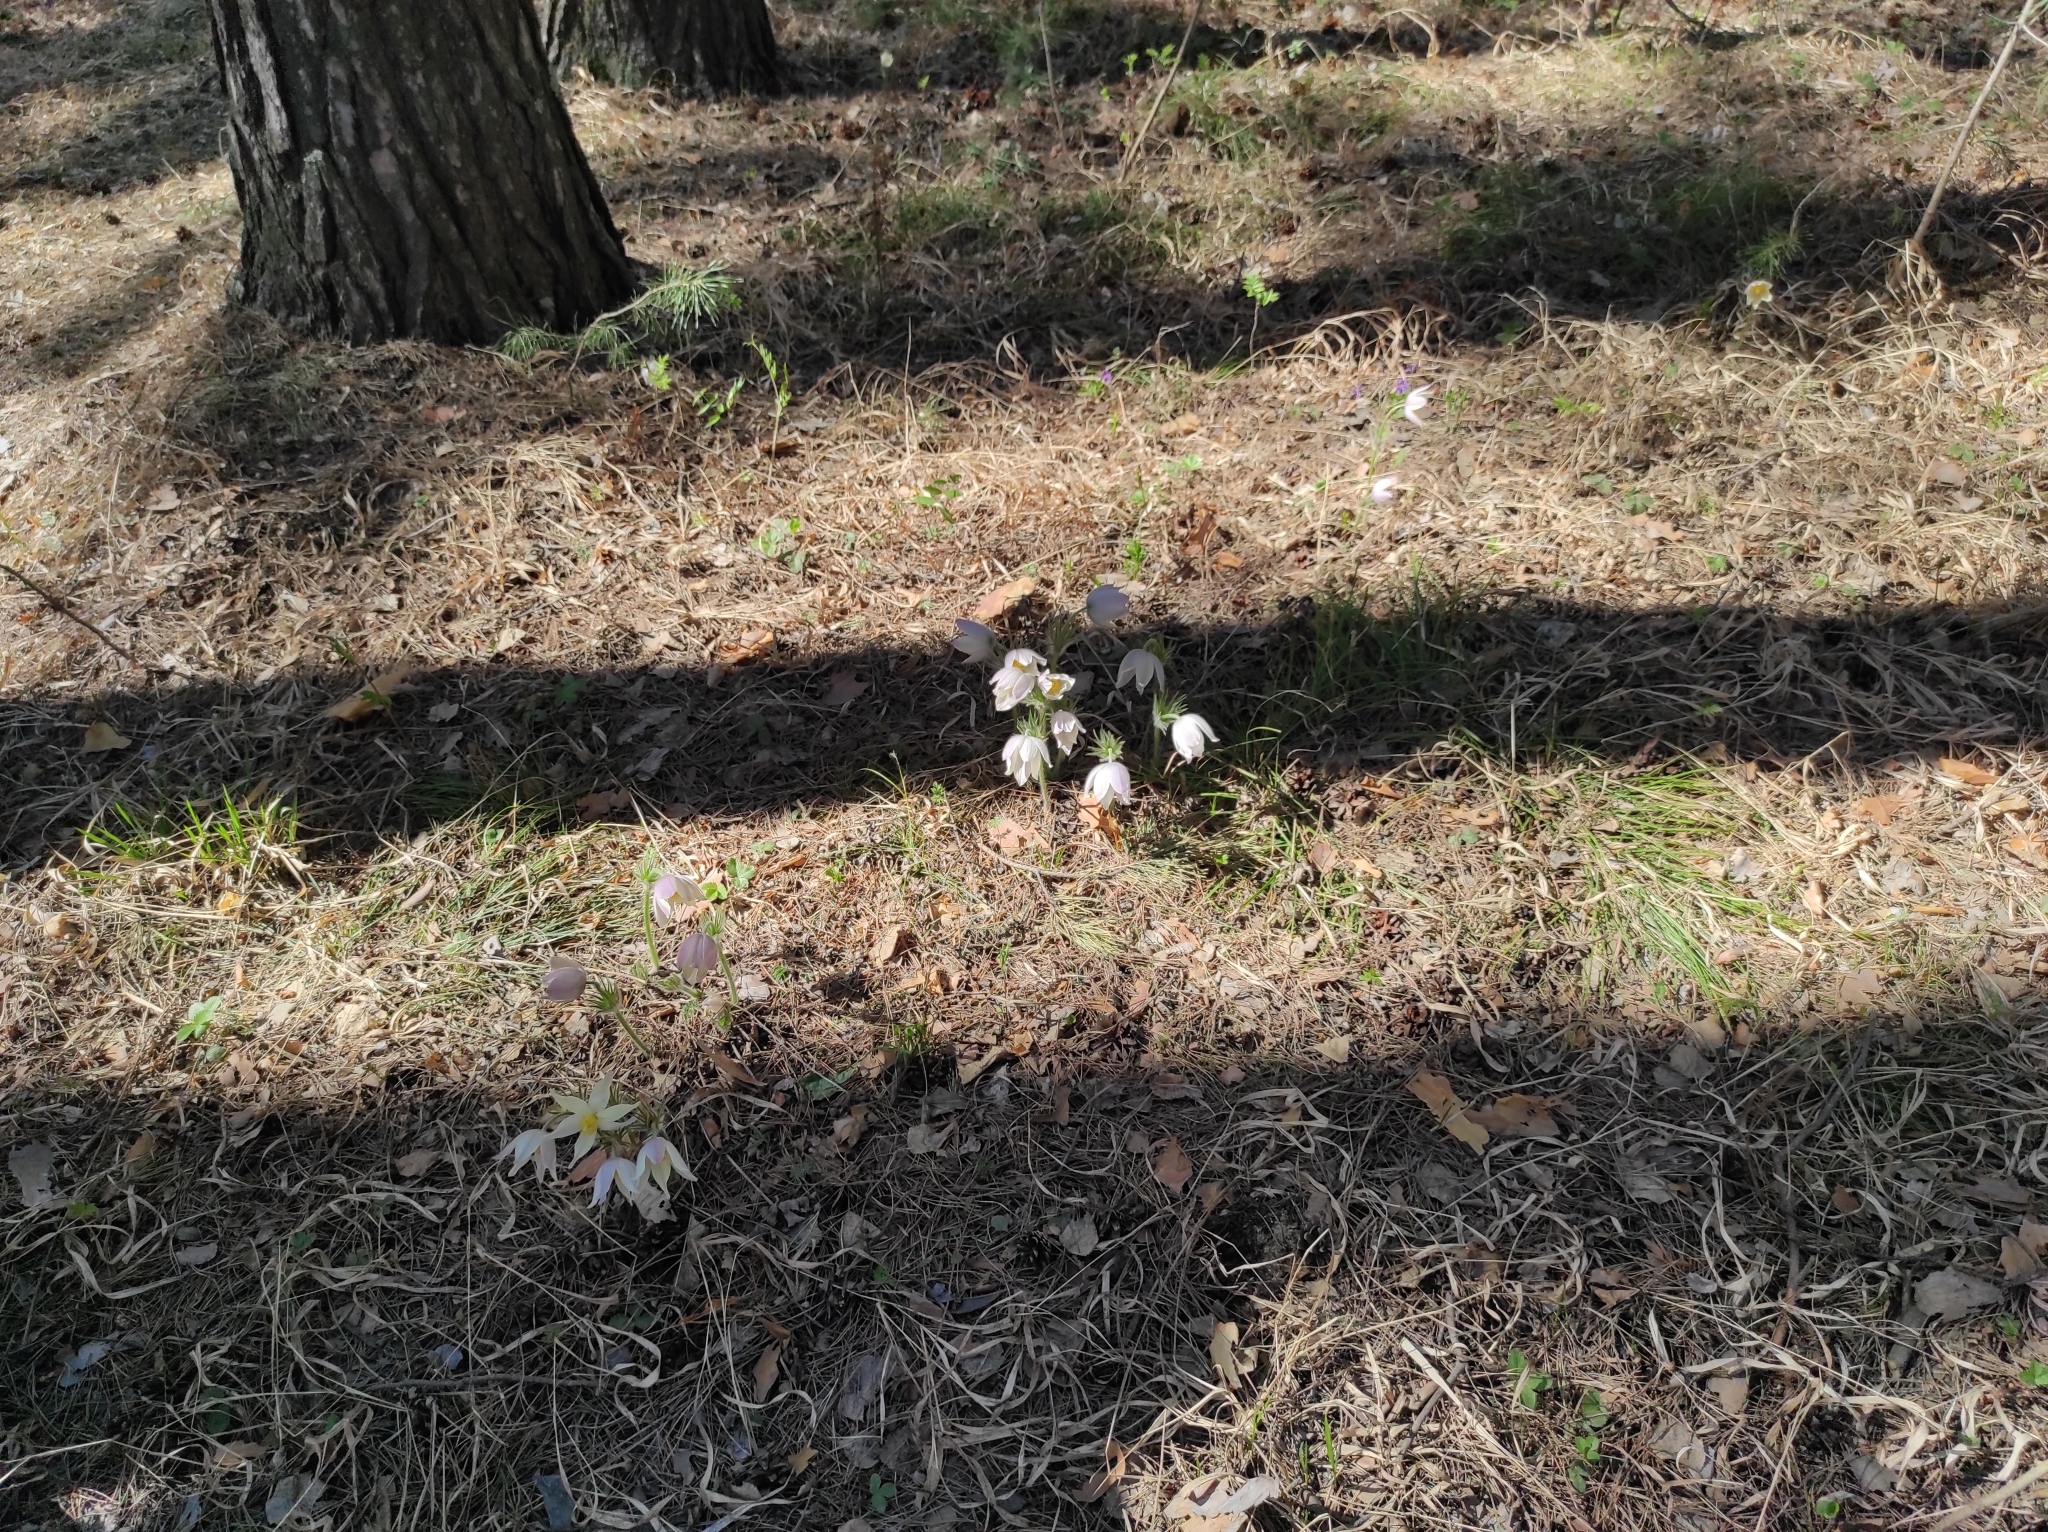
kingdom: Plantae
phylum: Tracheophyta
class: Magnoliopsida
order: Ranunculales
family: Ranunculaceae
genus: Pulsatilla
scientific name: Pulsatilla patens
